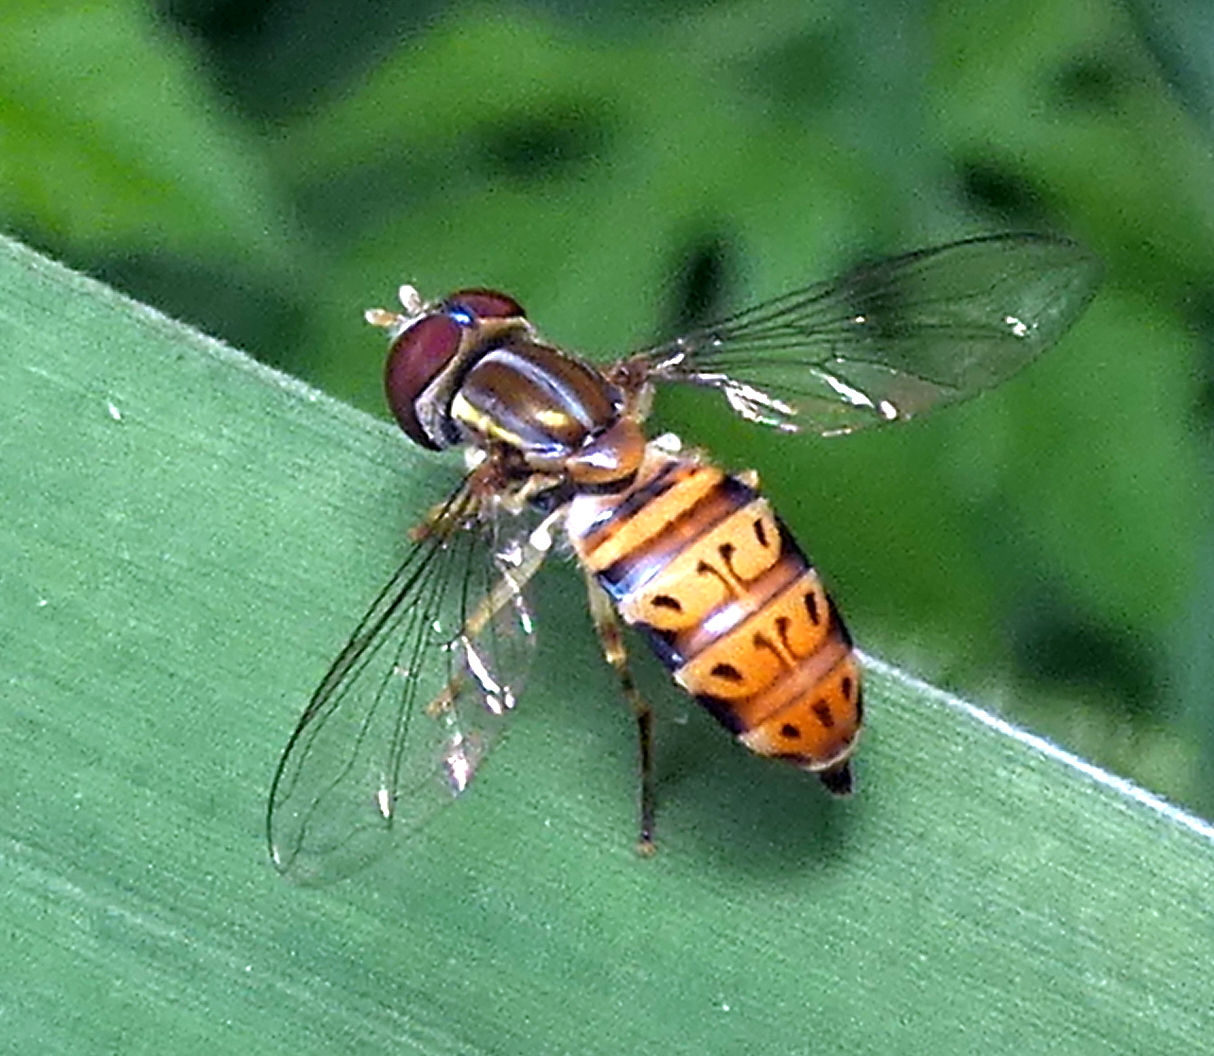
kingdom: Animalia
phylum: Arthropoda
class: Insecta
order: Diptera
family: Syrphidae
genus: Toxomerus
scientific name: Toxomerus pulchellus
